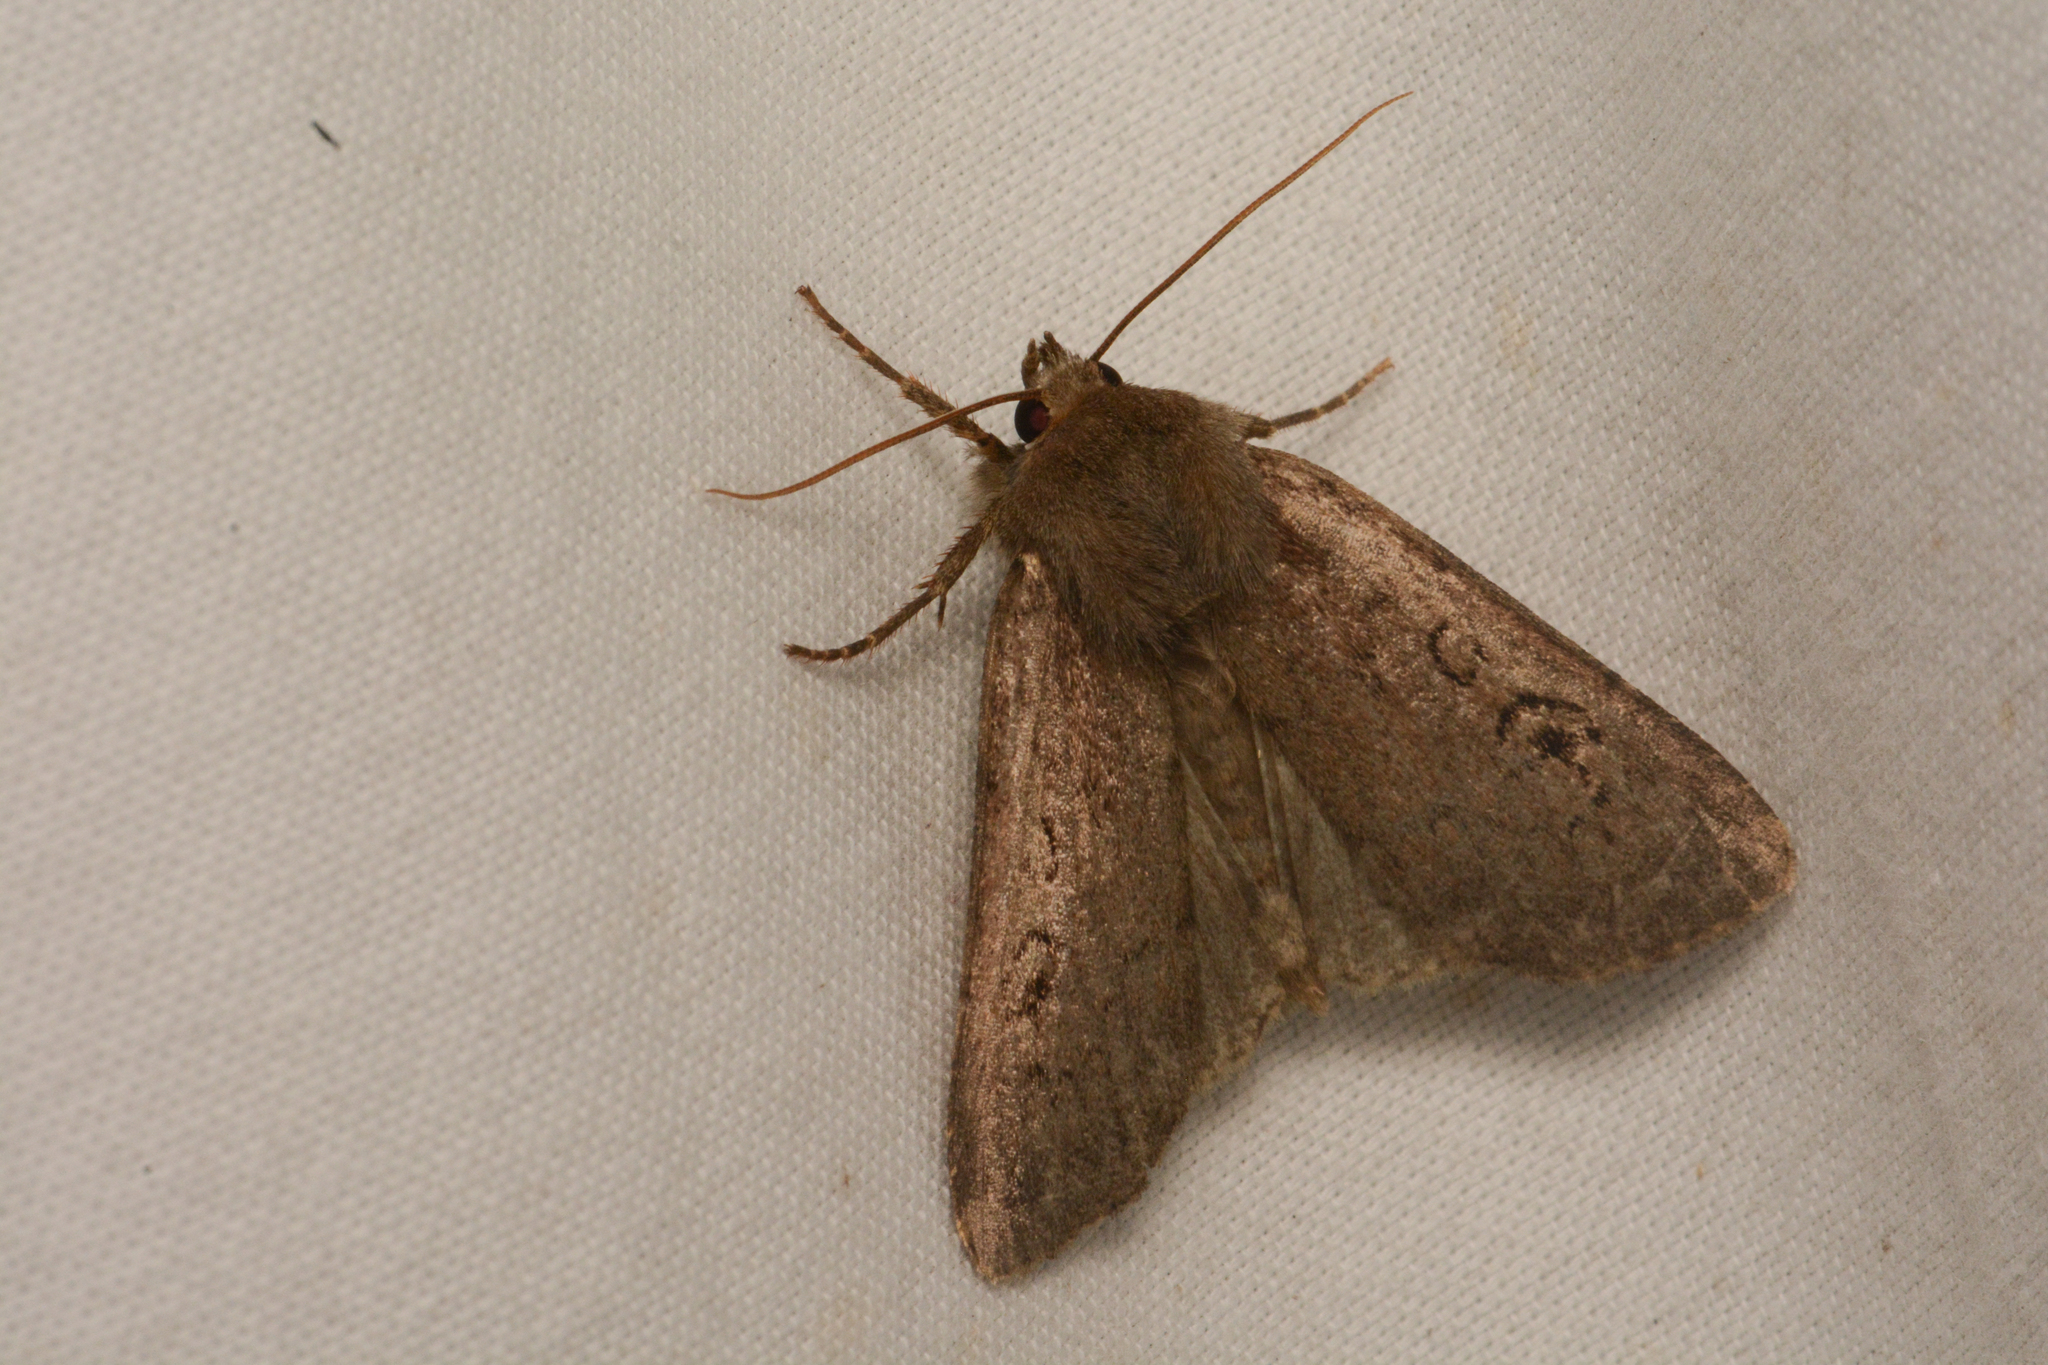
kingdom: Animalia
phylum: Arthropoda
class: Insecta
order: Lepidoptera
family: Noctuidae
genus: Graphiphora
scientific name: Graphiphora augur
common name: Double dart
